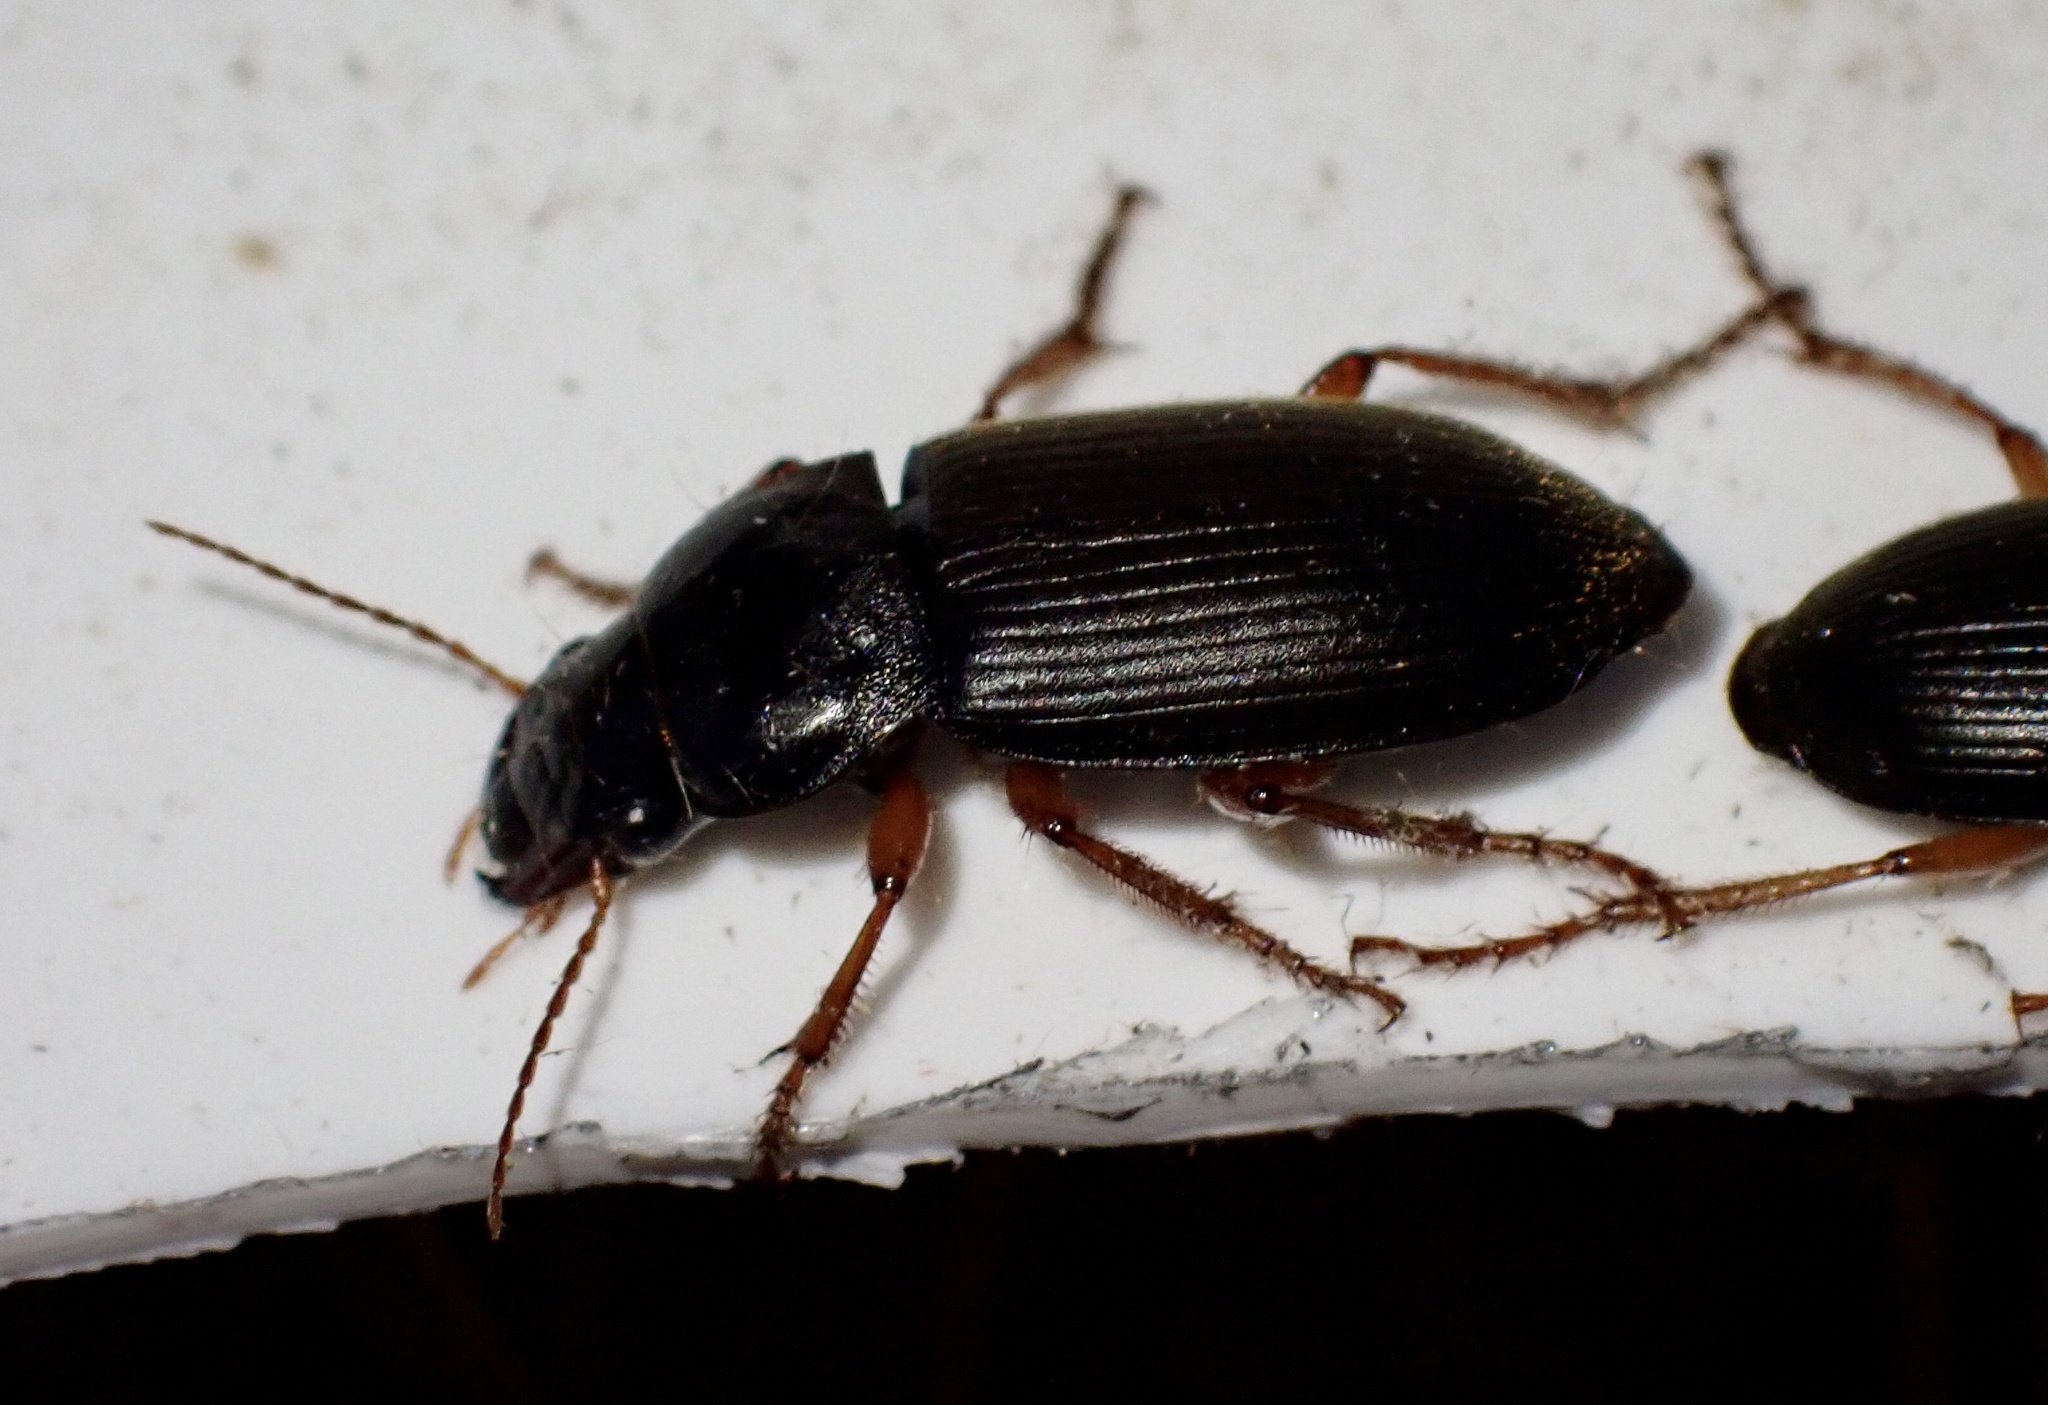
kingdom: Animalia
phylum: Arthropoda
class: Insecta
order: Coleoptera
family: Carabidae
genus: Harpalus
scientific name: Harpalus rufipes
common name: Strawberry harp ground beetle
